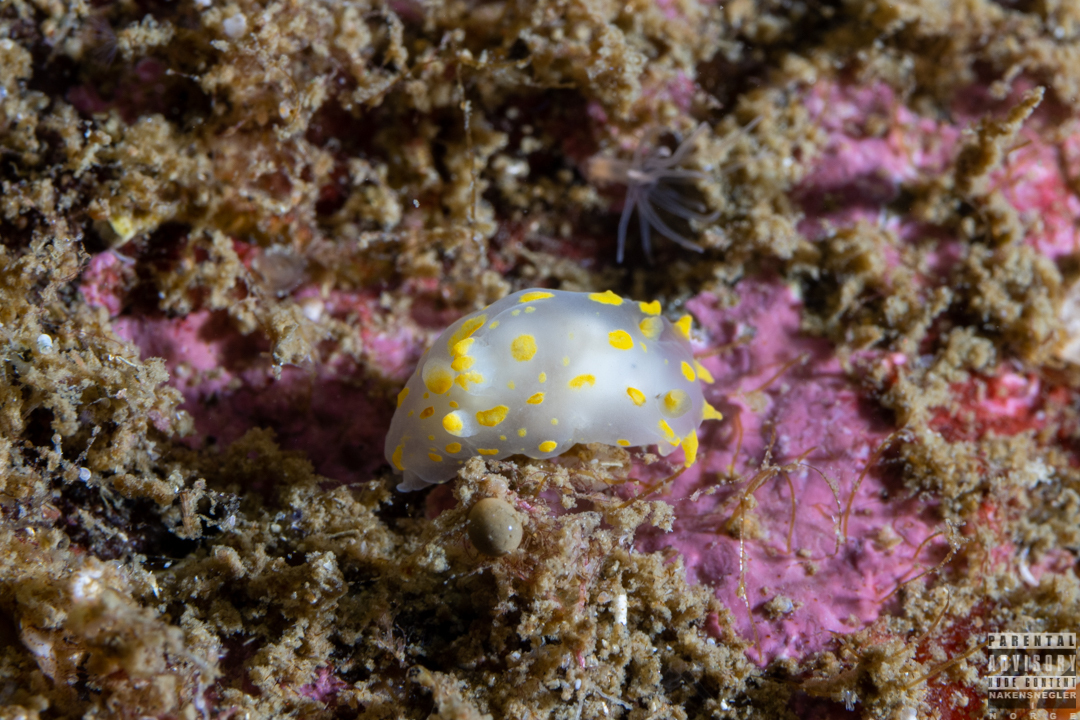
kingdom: Animalia
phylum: Mollusca
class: Gastropoda
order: Nudibranchia
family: Polyceridae
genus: Polycera
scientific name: Polycera quadrilineata
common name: Four-striped polycera
